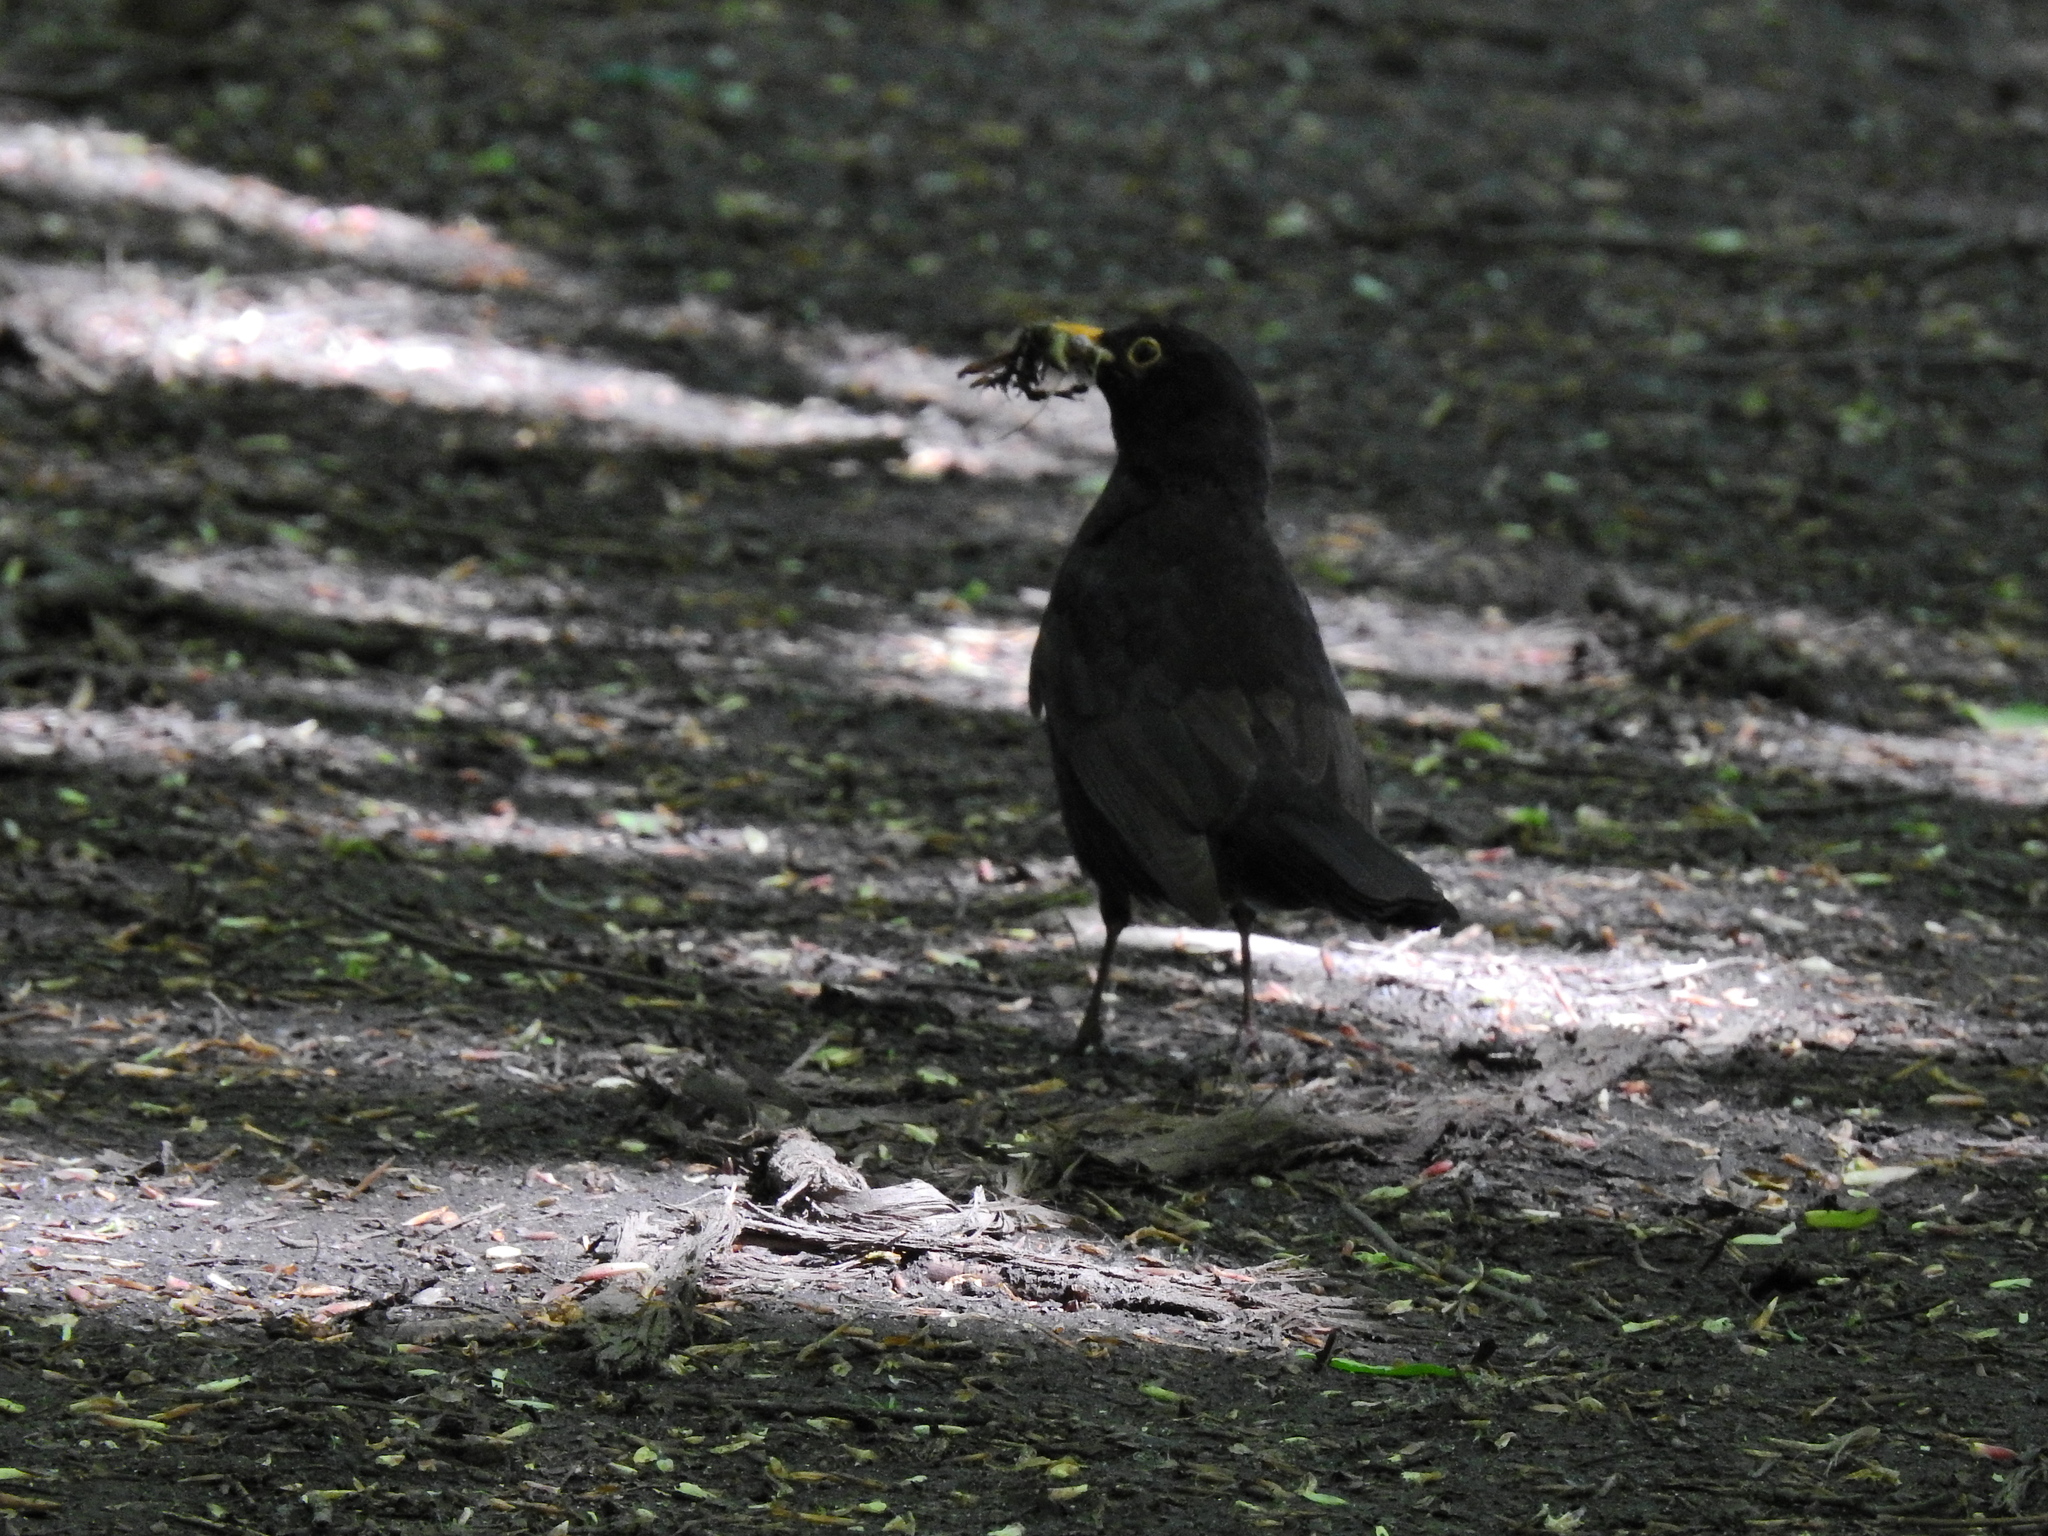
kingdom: Animalia
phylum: Chordata
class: Aves
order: Passeriformes
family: Turdidae
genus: Turdus
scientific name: Turdus merula
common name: Common blackbird
